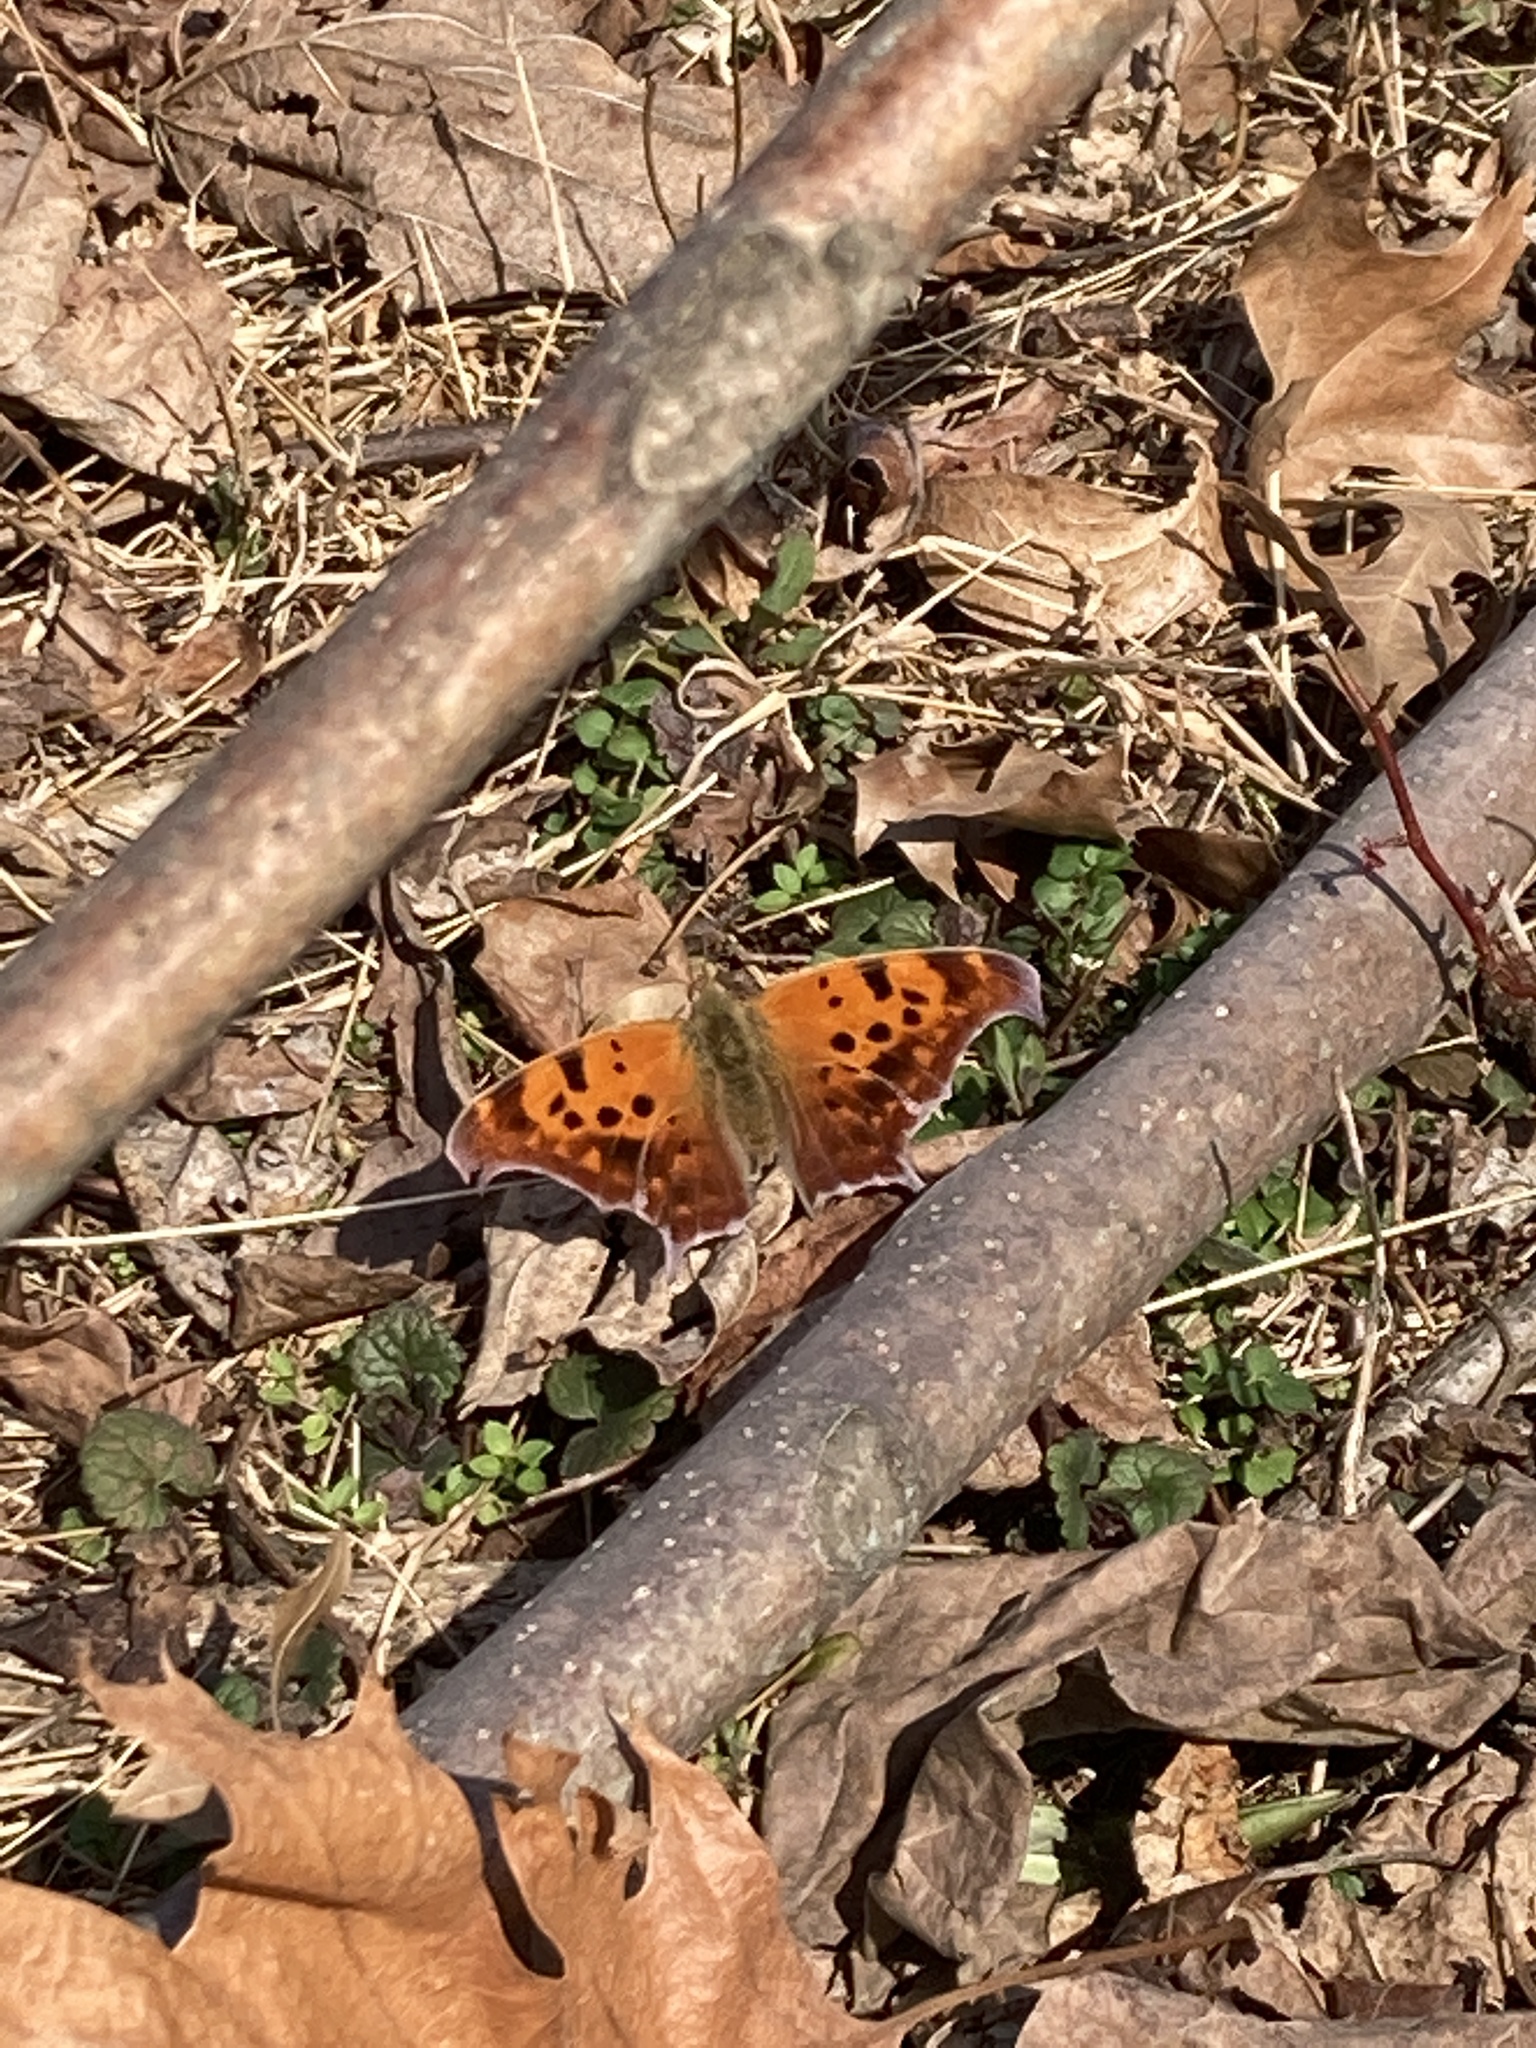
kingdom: Animalia
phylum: Arthropoda
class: Insecta
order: Lepidoptera
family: Nymphalidae
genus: Polygonia
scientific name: Polygonia interrogationis
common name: Question mark
